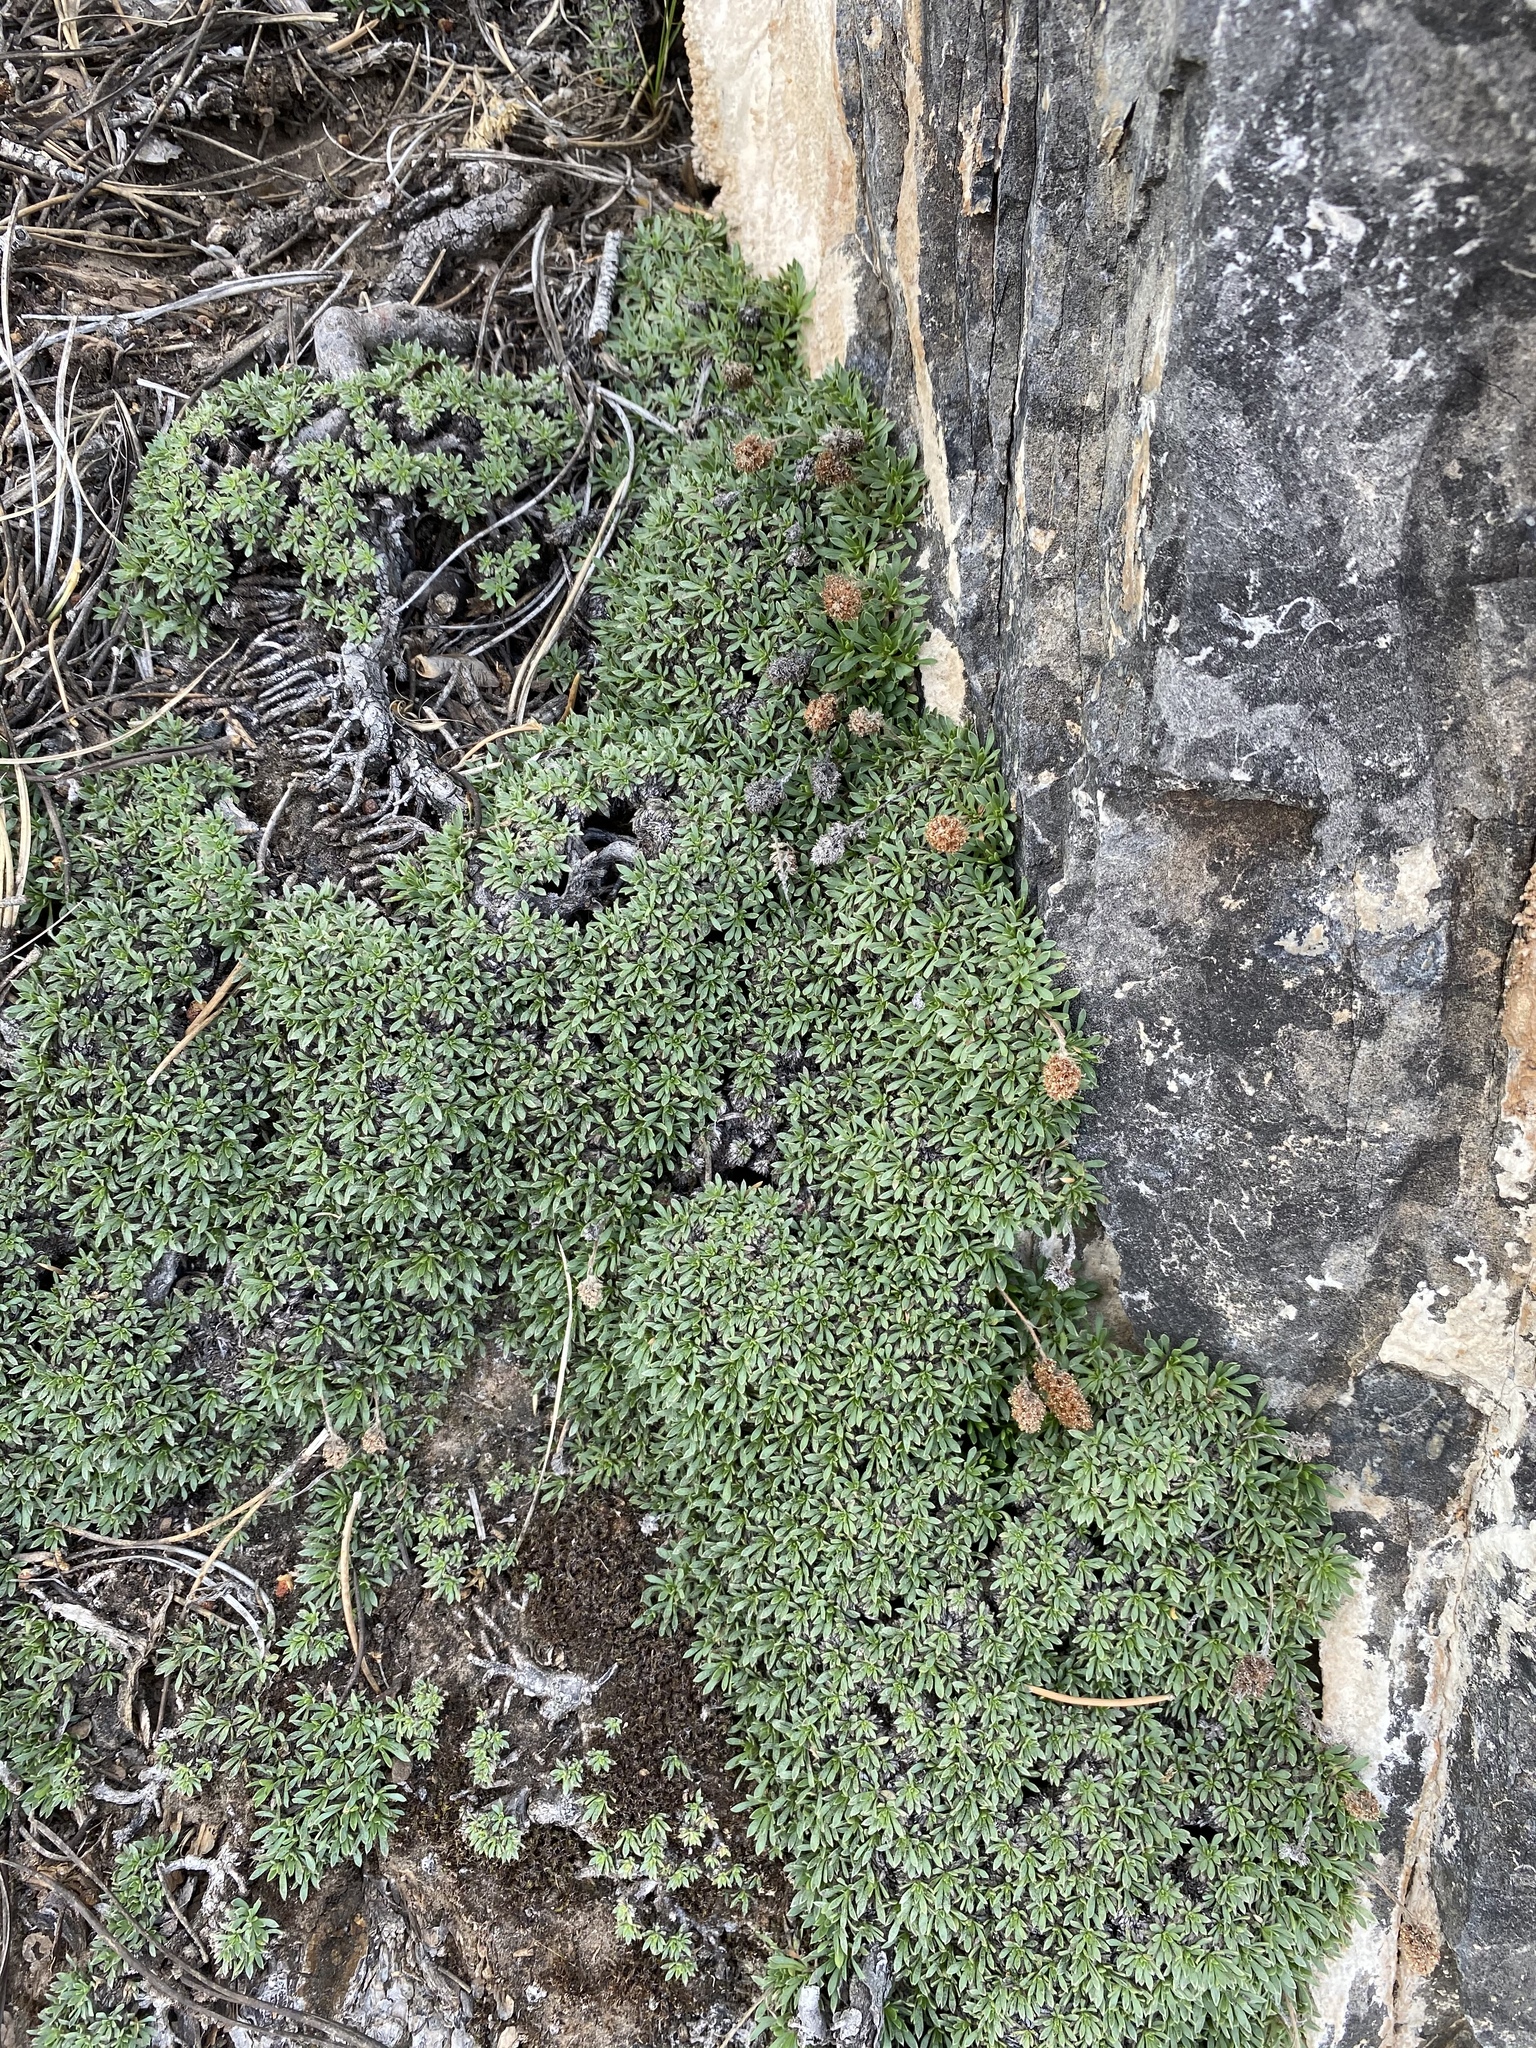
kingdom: Plantae
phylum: Tracheophyta
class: Magnoliopsida
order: Rosales
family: Rosaceae
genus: Petrophytum
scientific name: Petrophytum caespitosum
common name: Mat rockspirea
